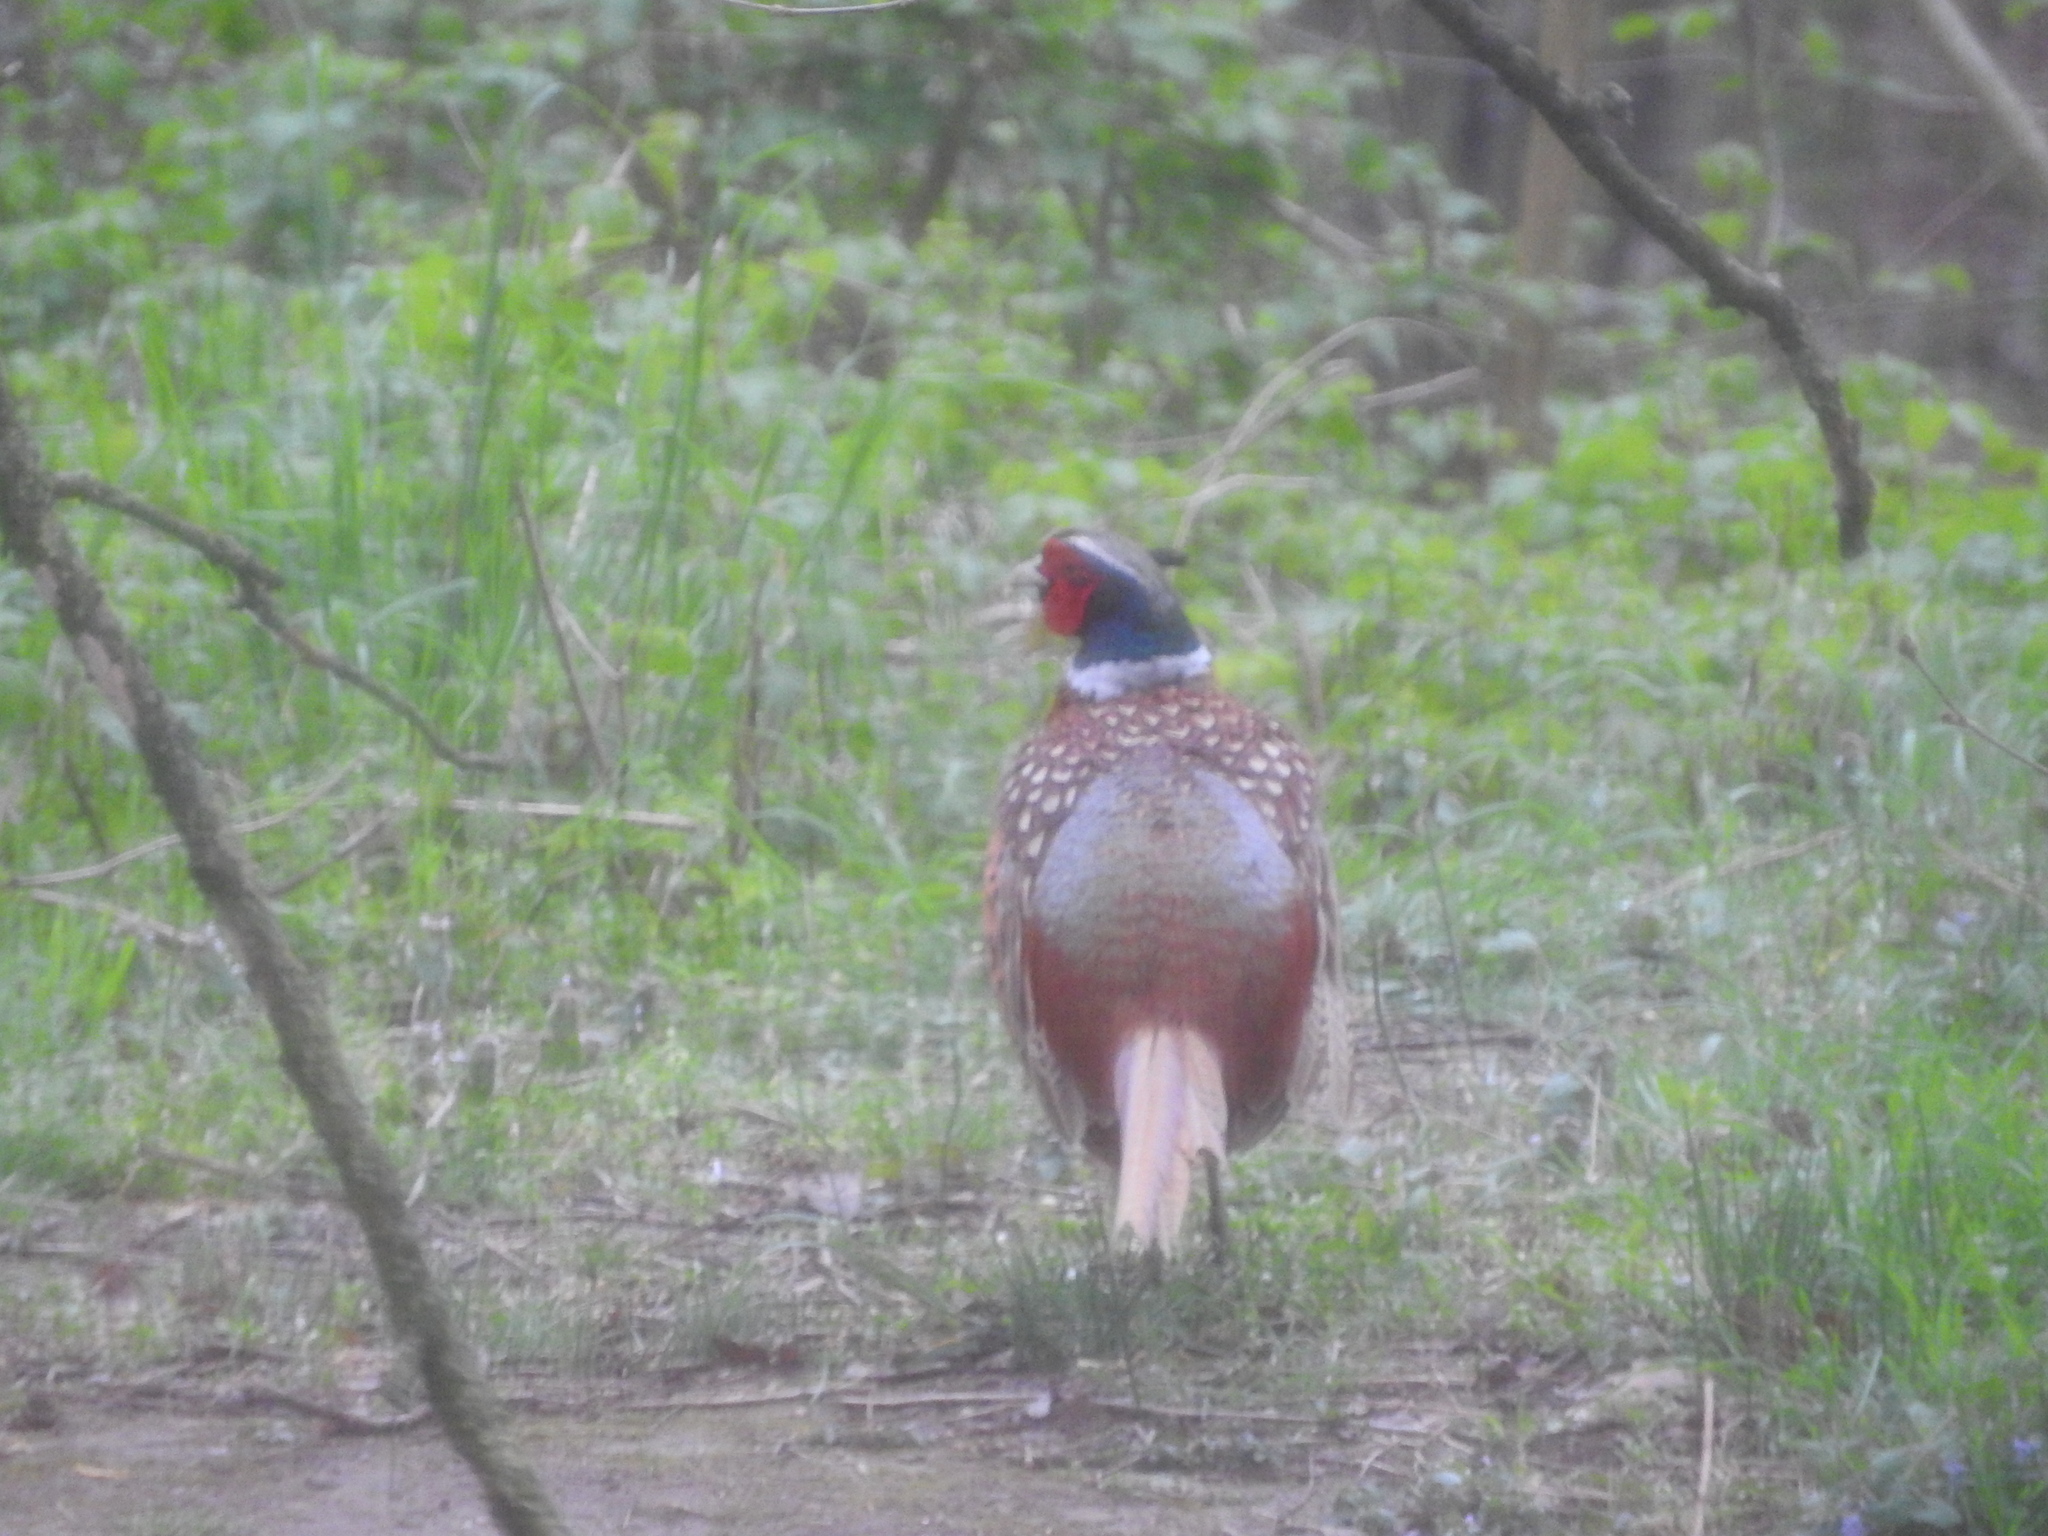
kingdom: Animalia
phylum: Chordata
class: Aves
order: Galliformes
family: Phasianidae
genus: Phasianus
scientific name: Phasianus colchicus
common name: Common pheasant
